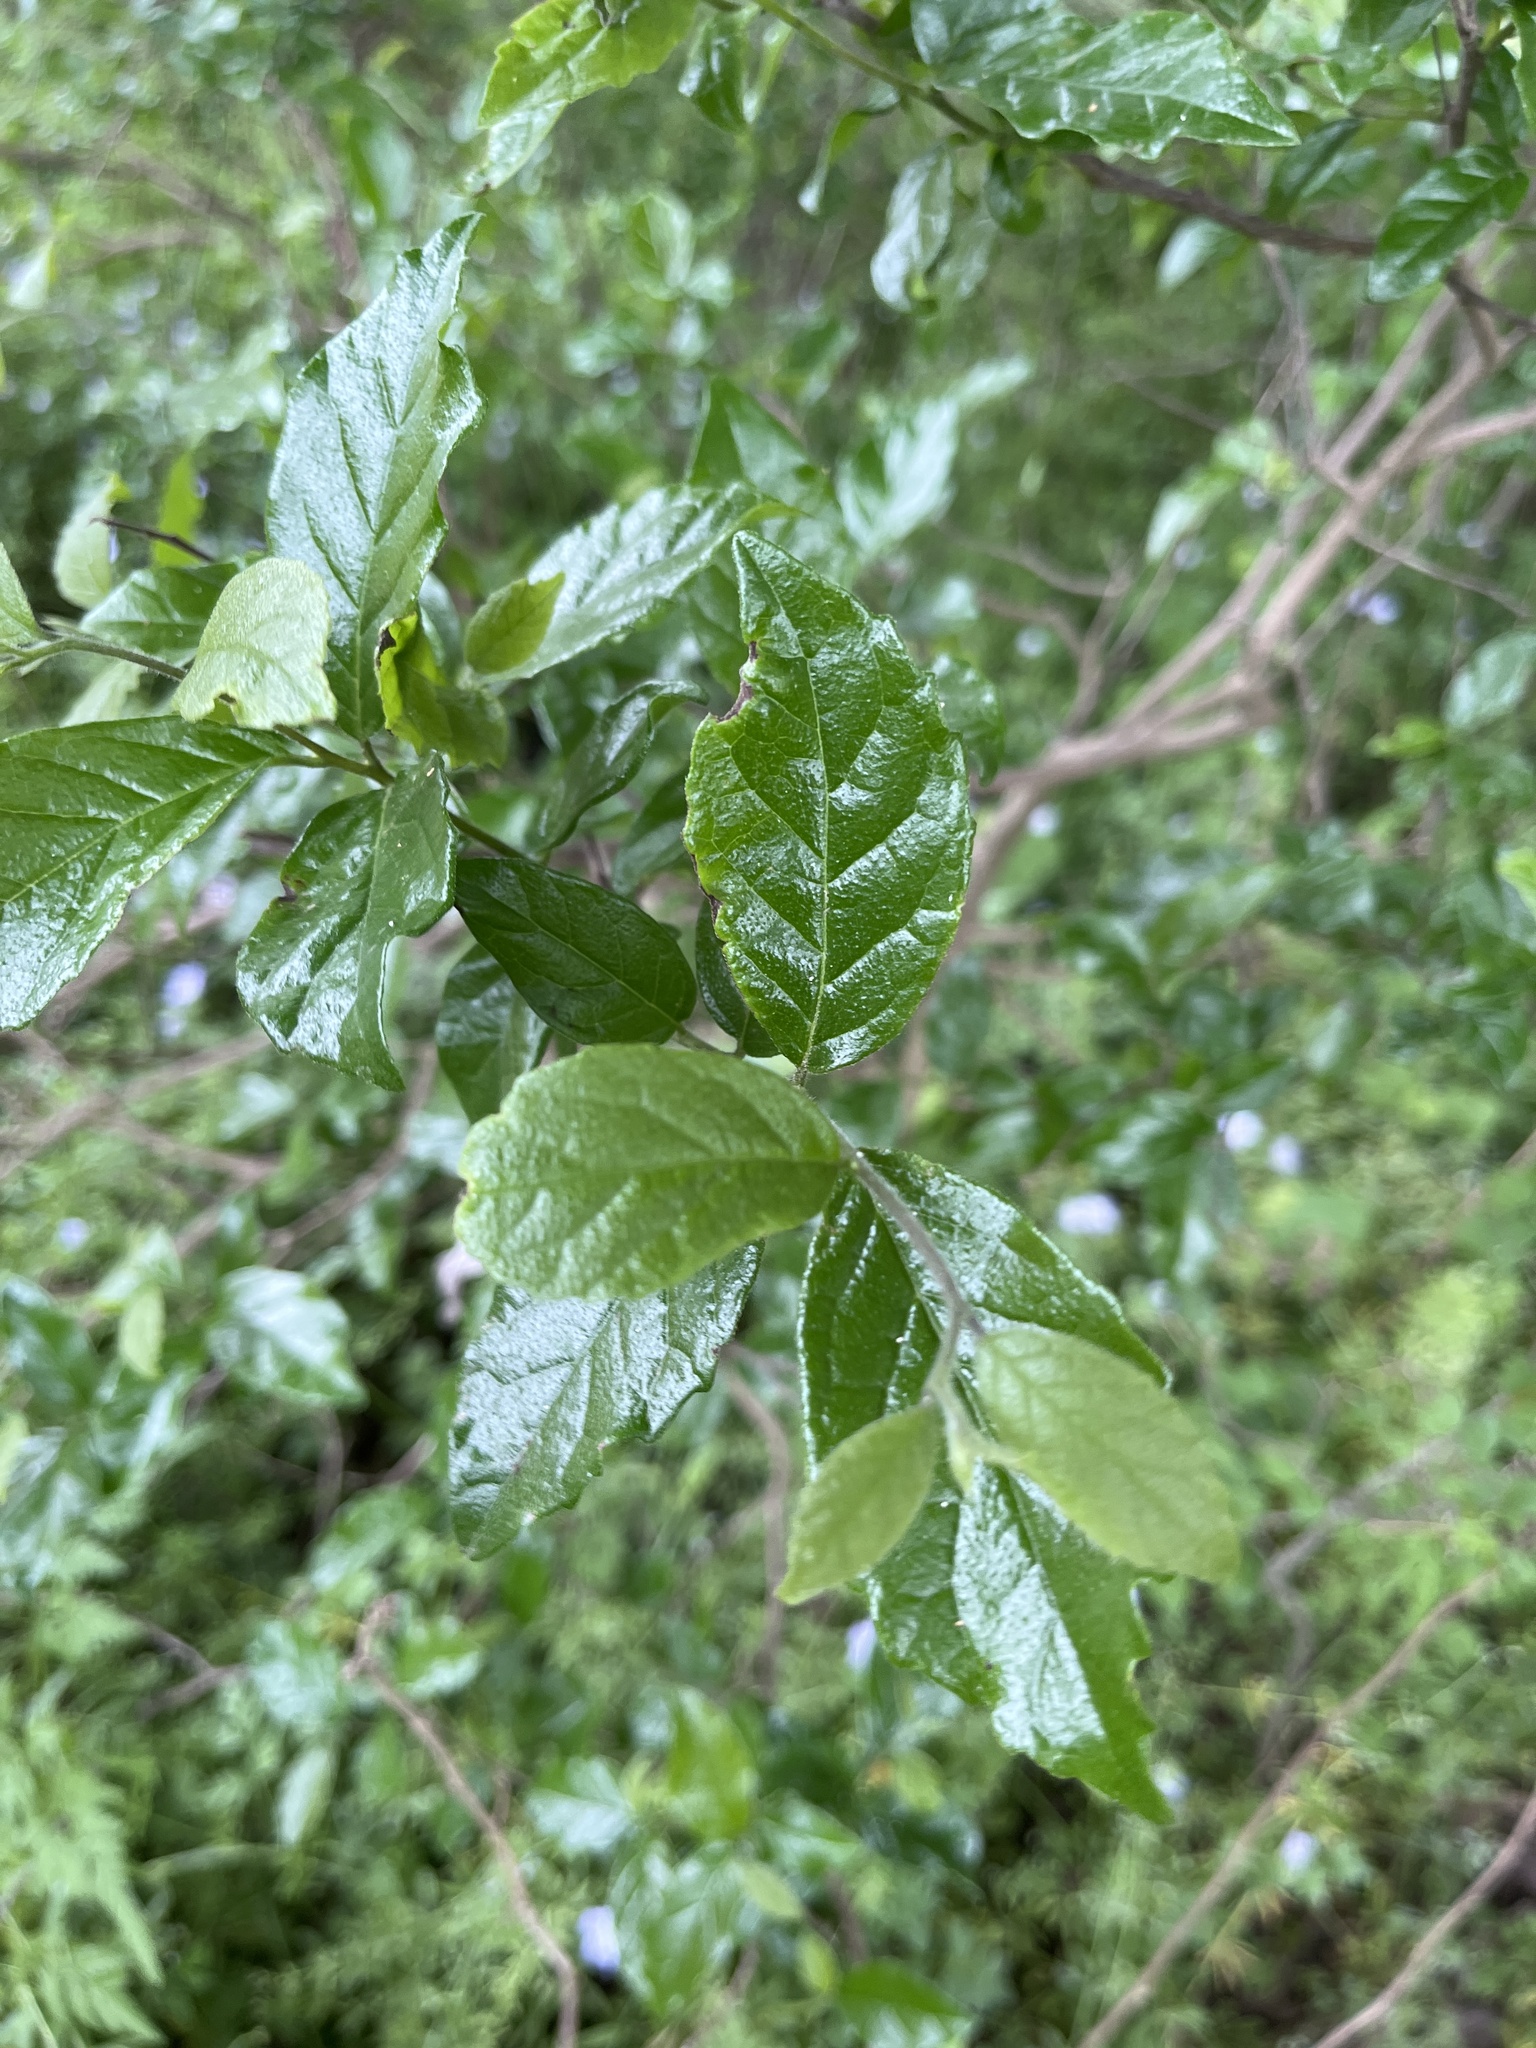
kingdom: Plantae
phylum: Tracheophyta
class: Magnoliopsida
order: Boraginales
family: Ehretiaceae
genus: Ehretia
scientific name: Ehretia anacua
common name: Sugarberry
